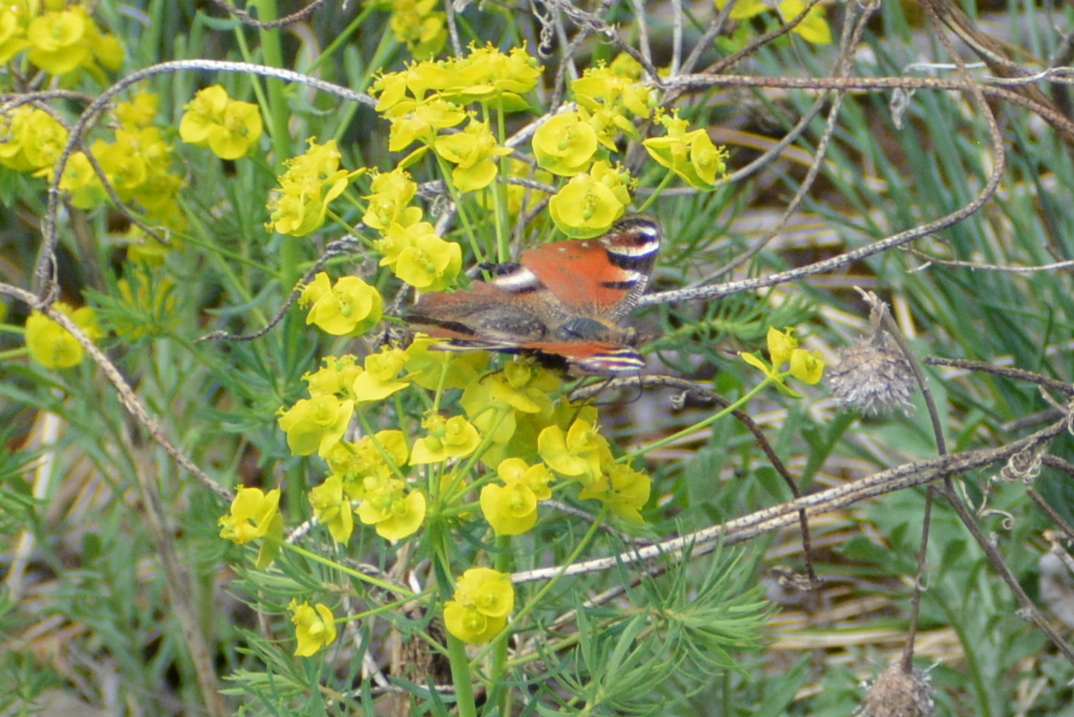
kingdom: Animalia
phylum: Arthropoda
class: Insecta
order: Lepidoptera
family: Nymphalidae
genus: Aglais
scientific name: Aglais io
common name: Peacock
